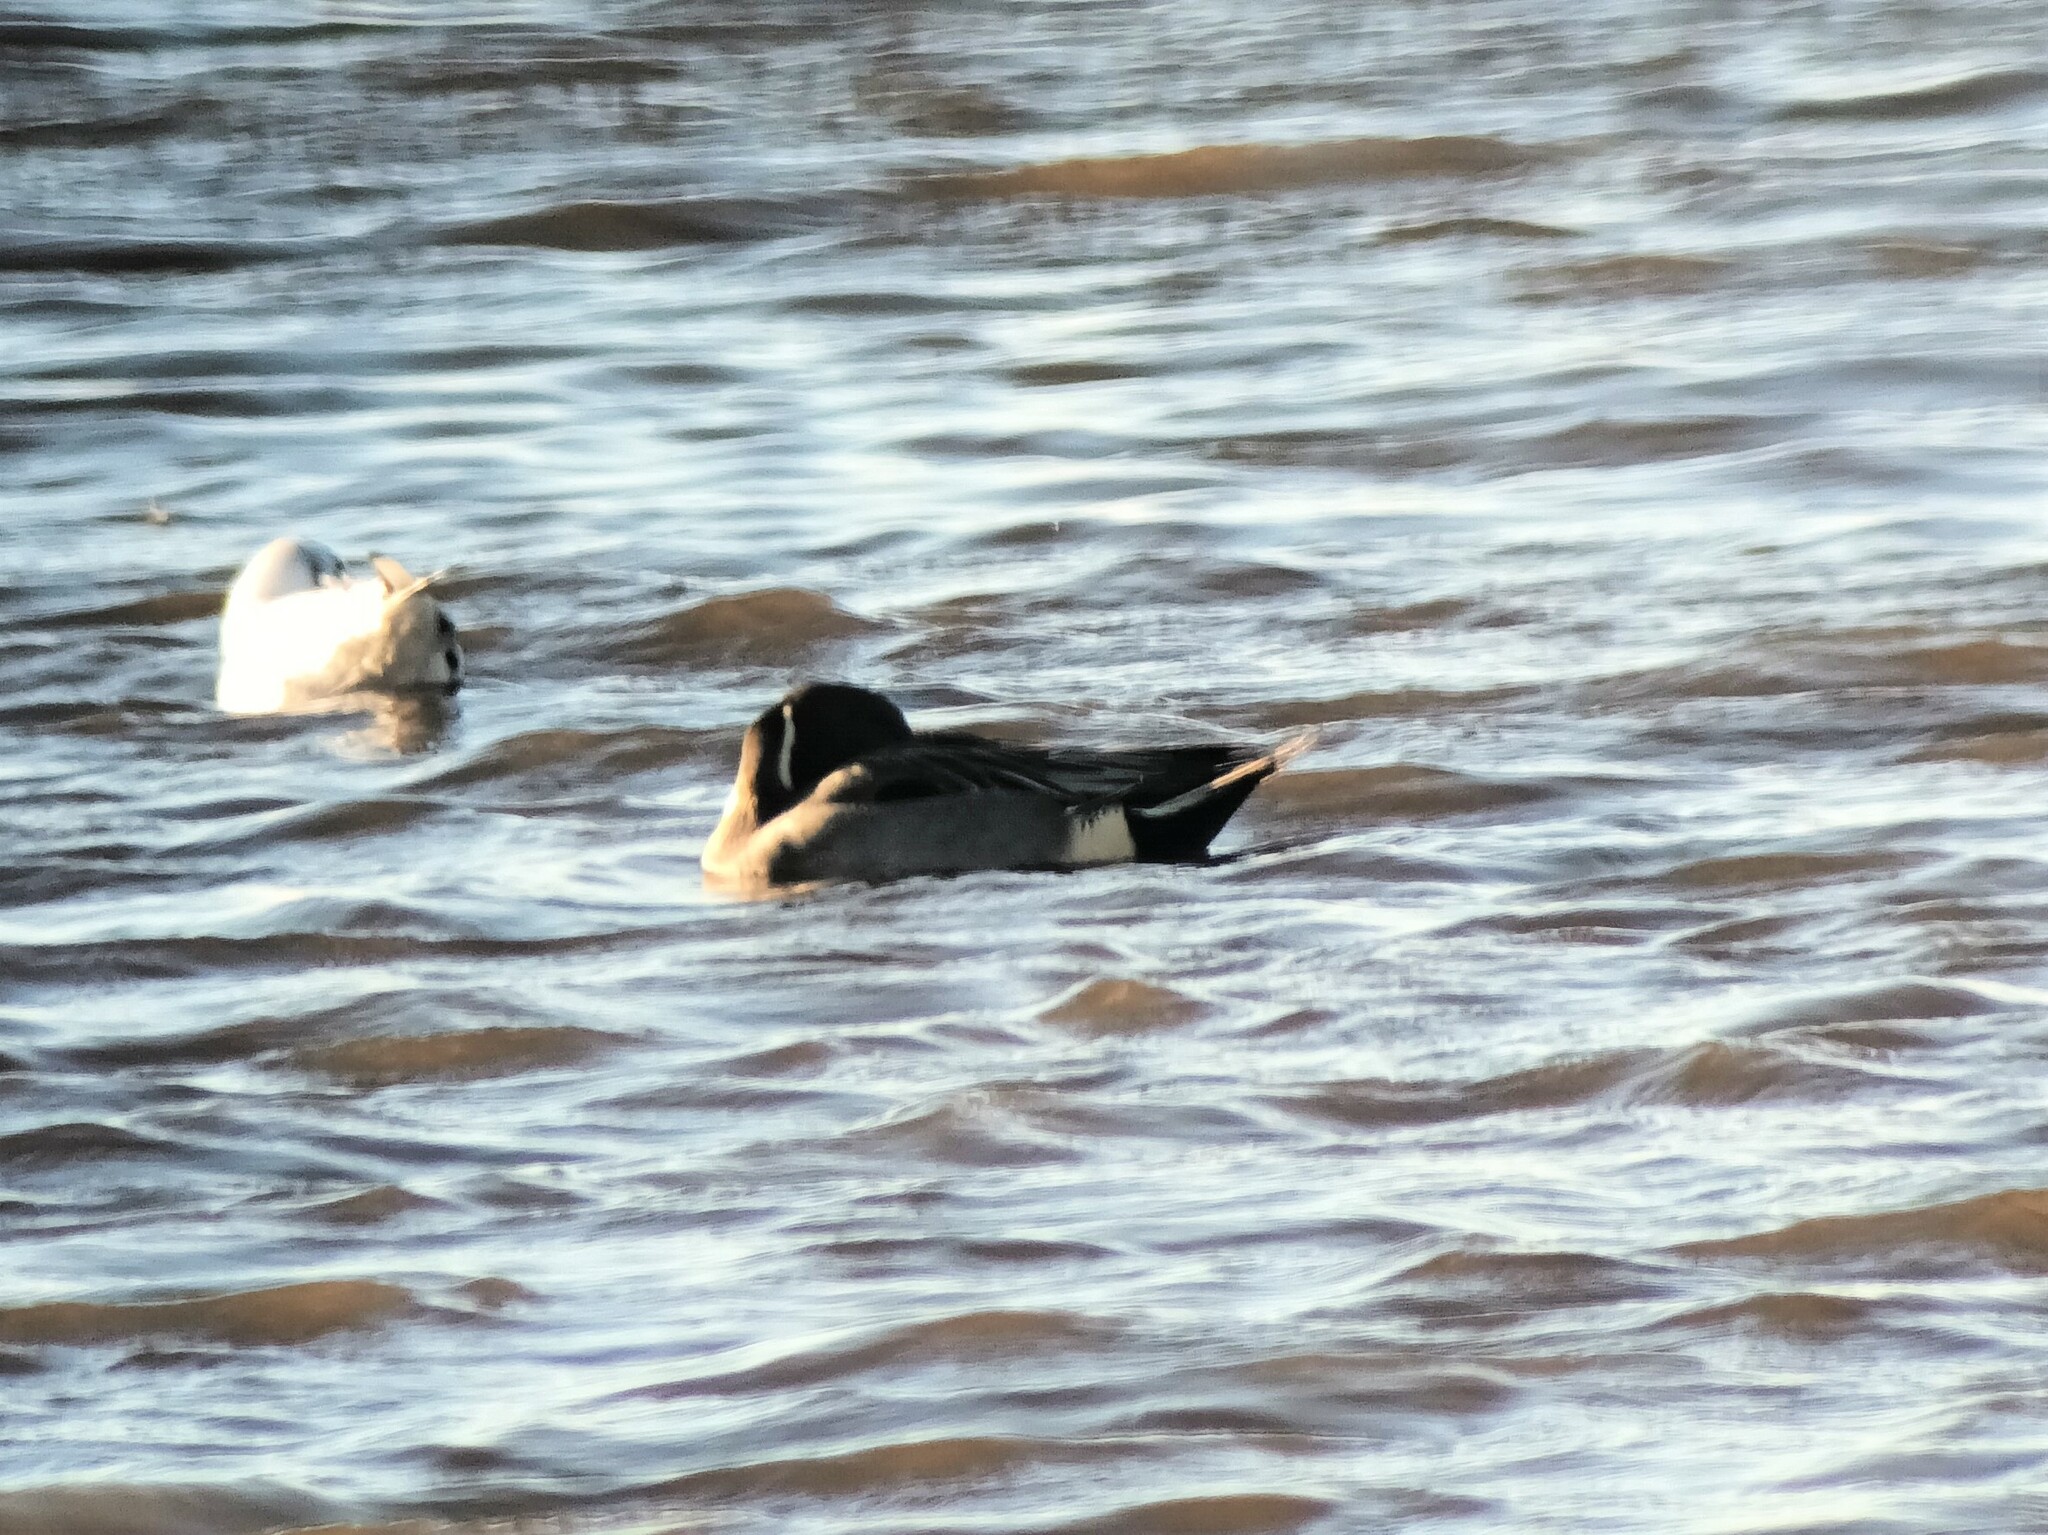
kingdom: Animalia
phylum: Chordata
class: Aves
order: Anseriformes
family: Anatidae
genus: Anas
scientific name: Anas acuta
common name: Northern pintail
